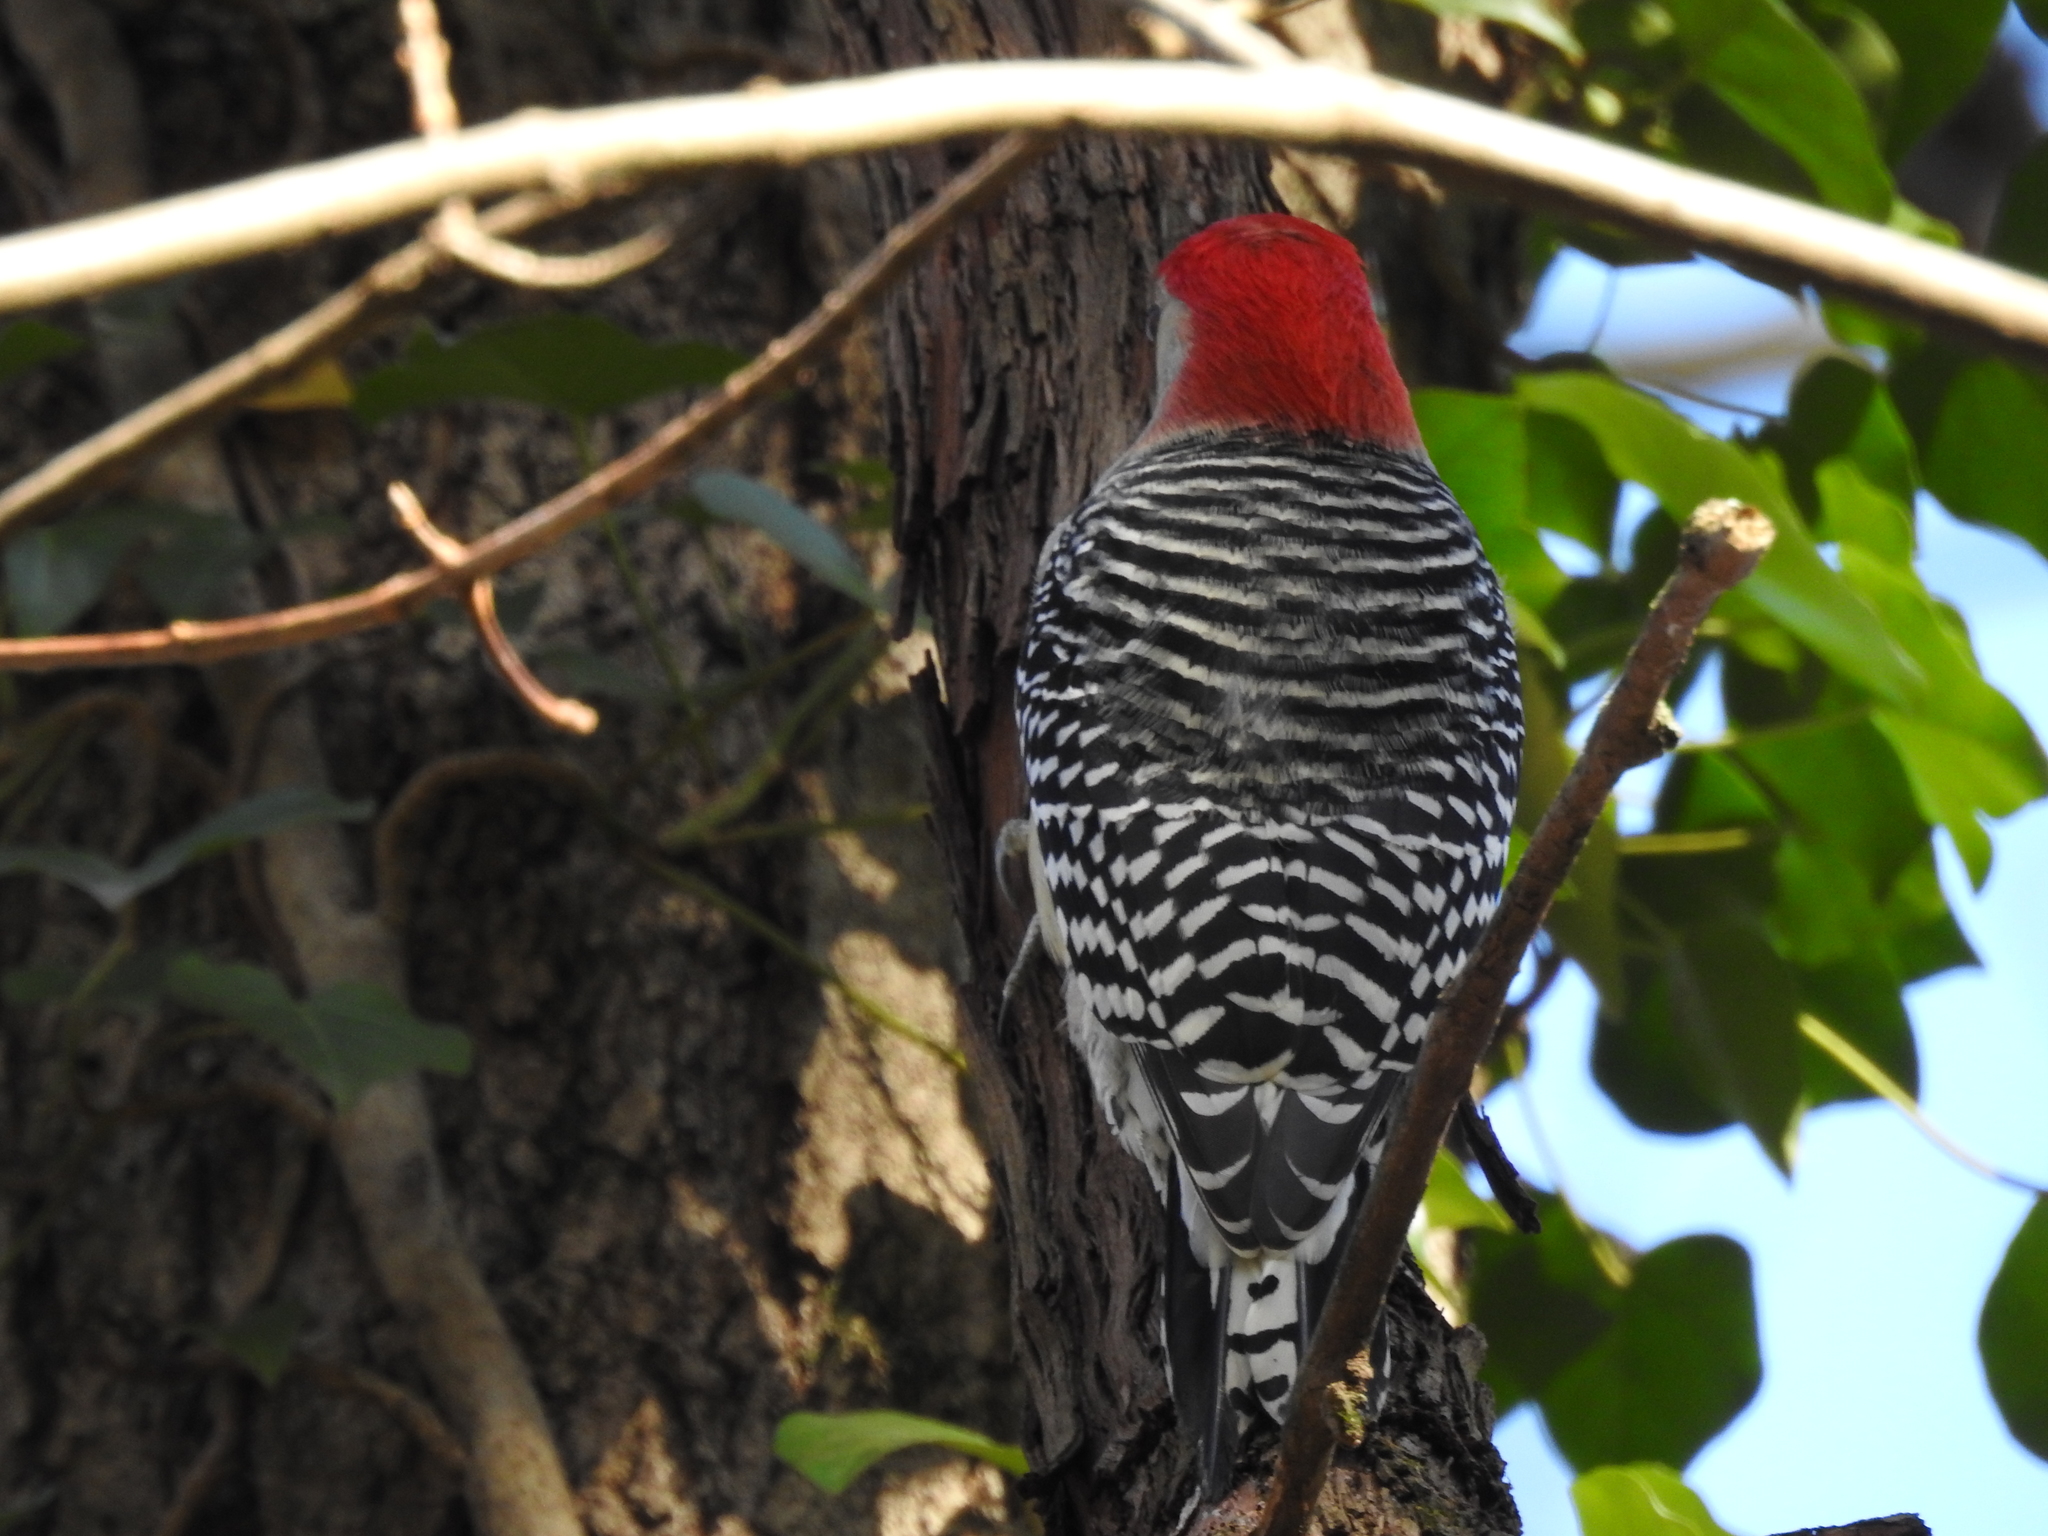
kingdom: Animalia
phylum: Chordata
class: Aves
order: Piciformes
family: Picidae
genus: Melanerpes
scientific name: Melanerpes carolinus
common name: Red-bellied woodpecker
